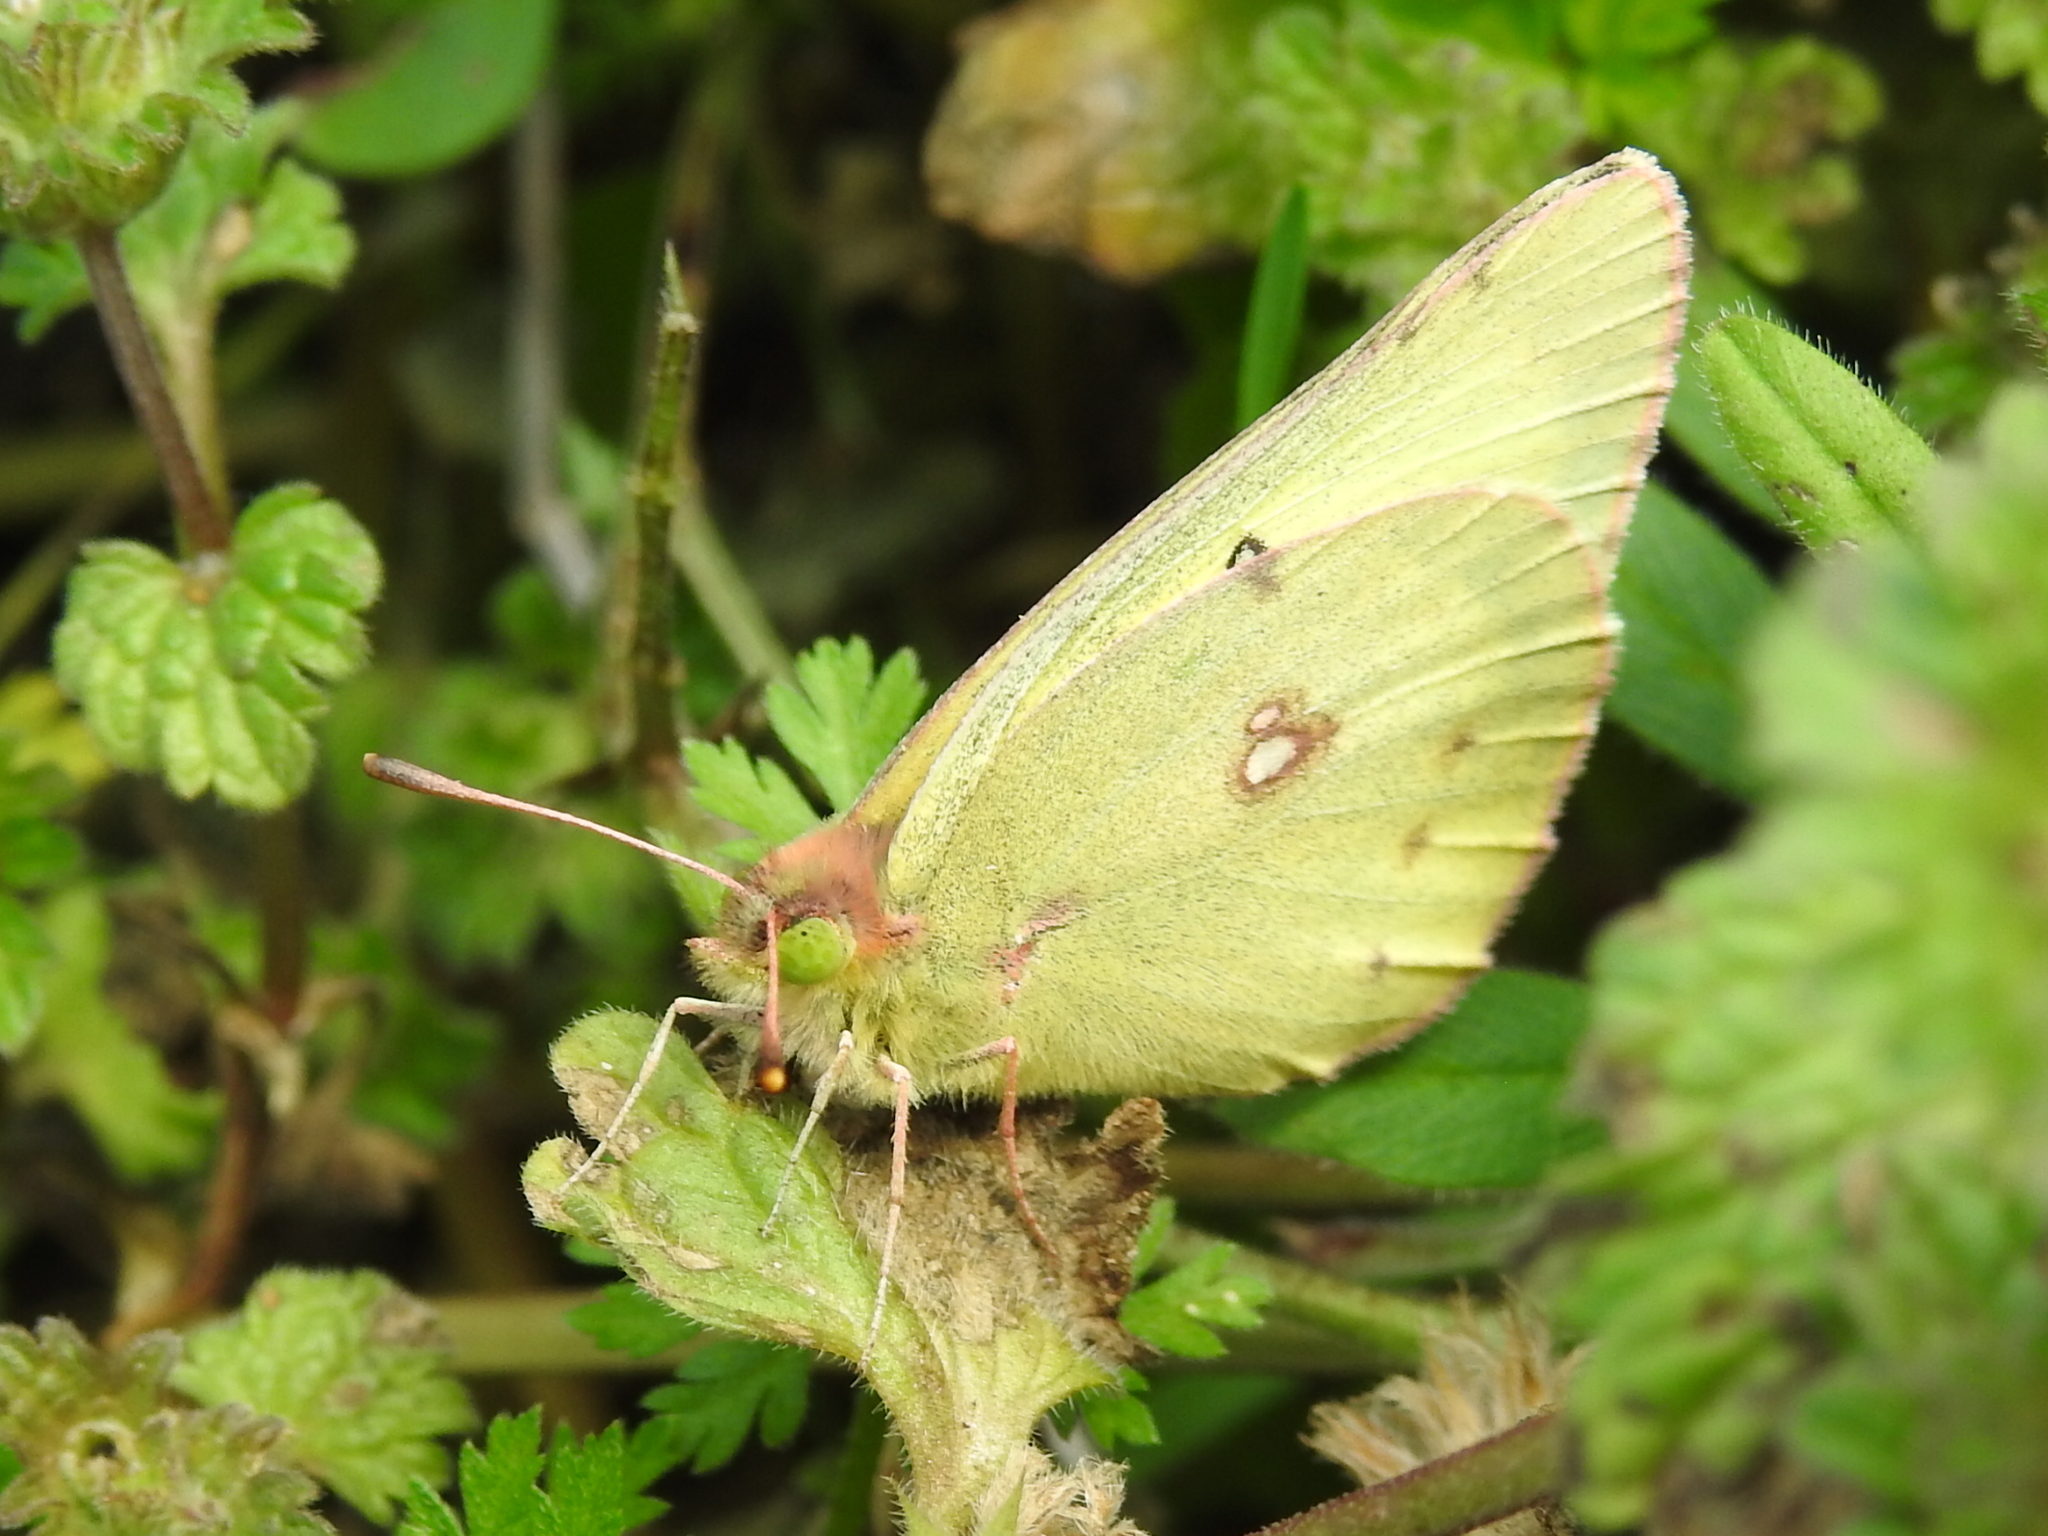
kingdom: Animalia
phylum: Arthropoda
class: Insecta
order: Lepidoptera
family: Pieridae
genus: Colias
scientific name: Colias eurytheme
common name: Alfalfa butterfly
